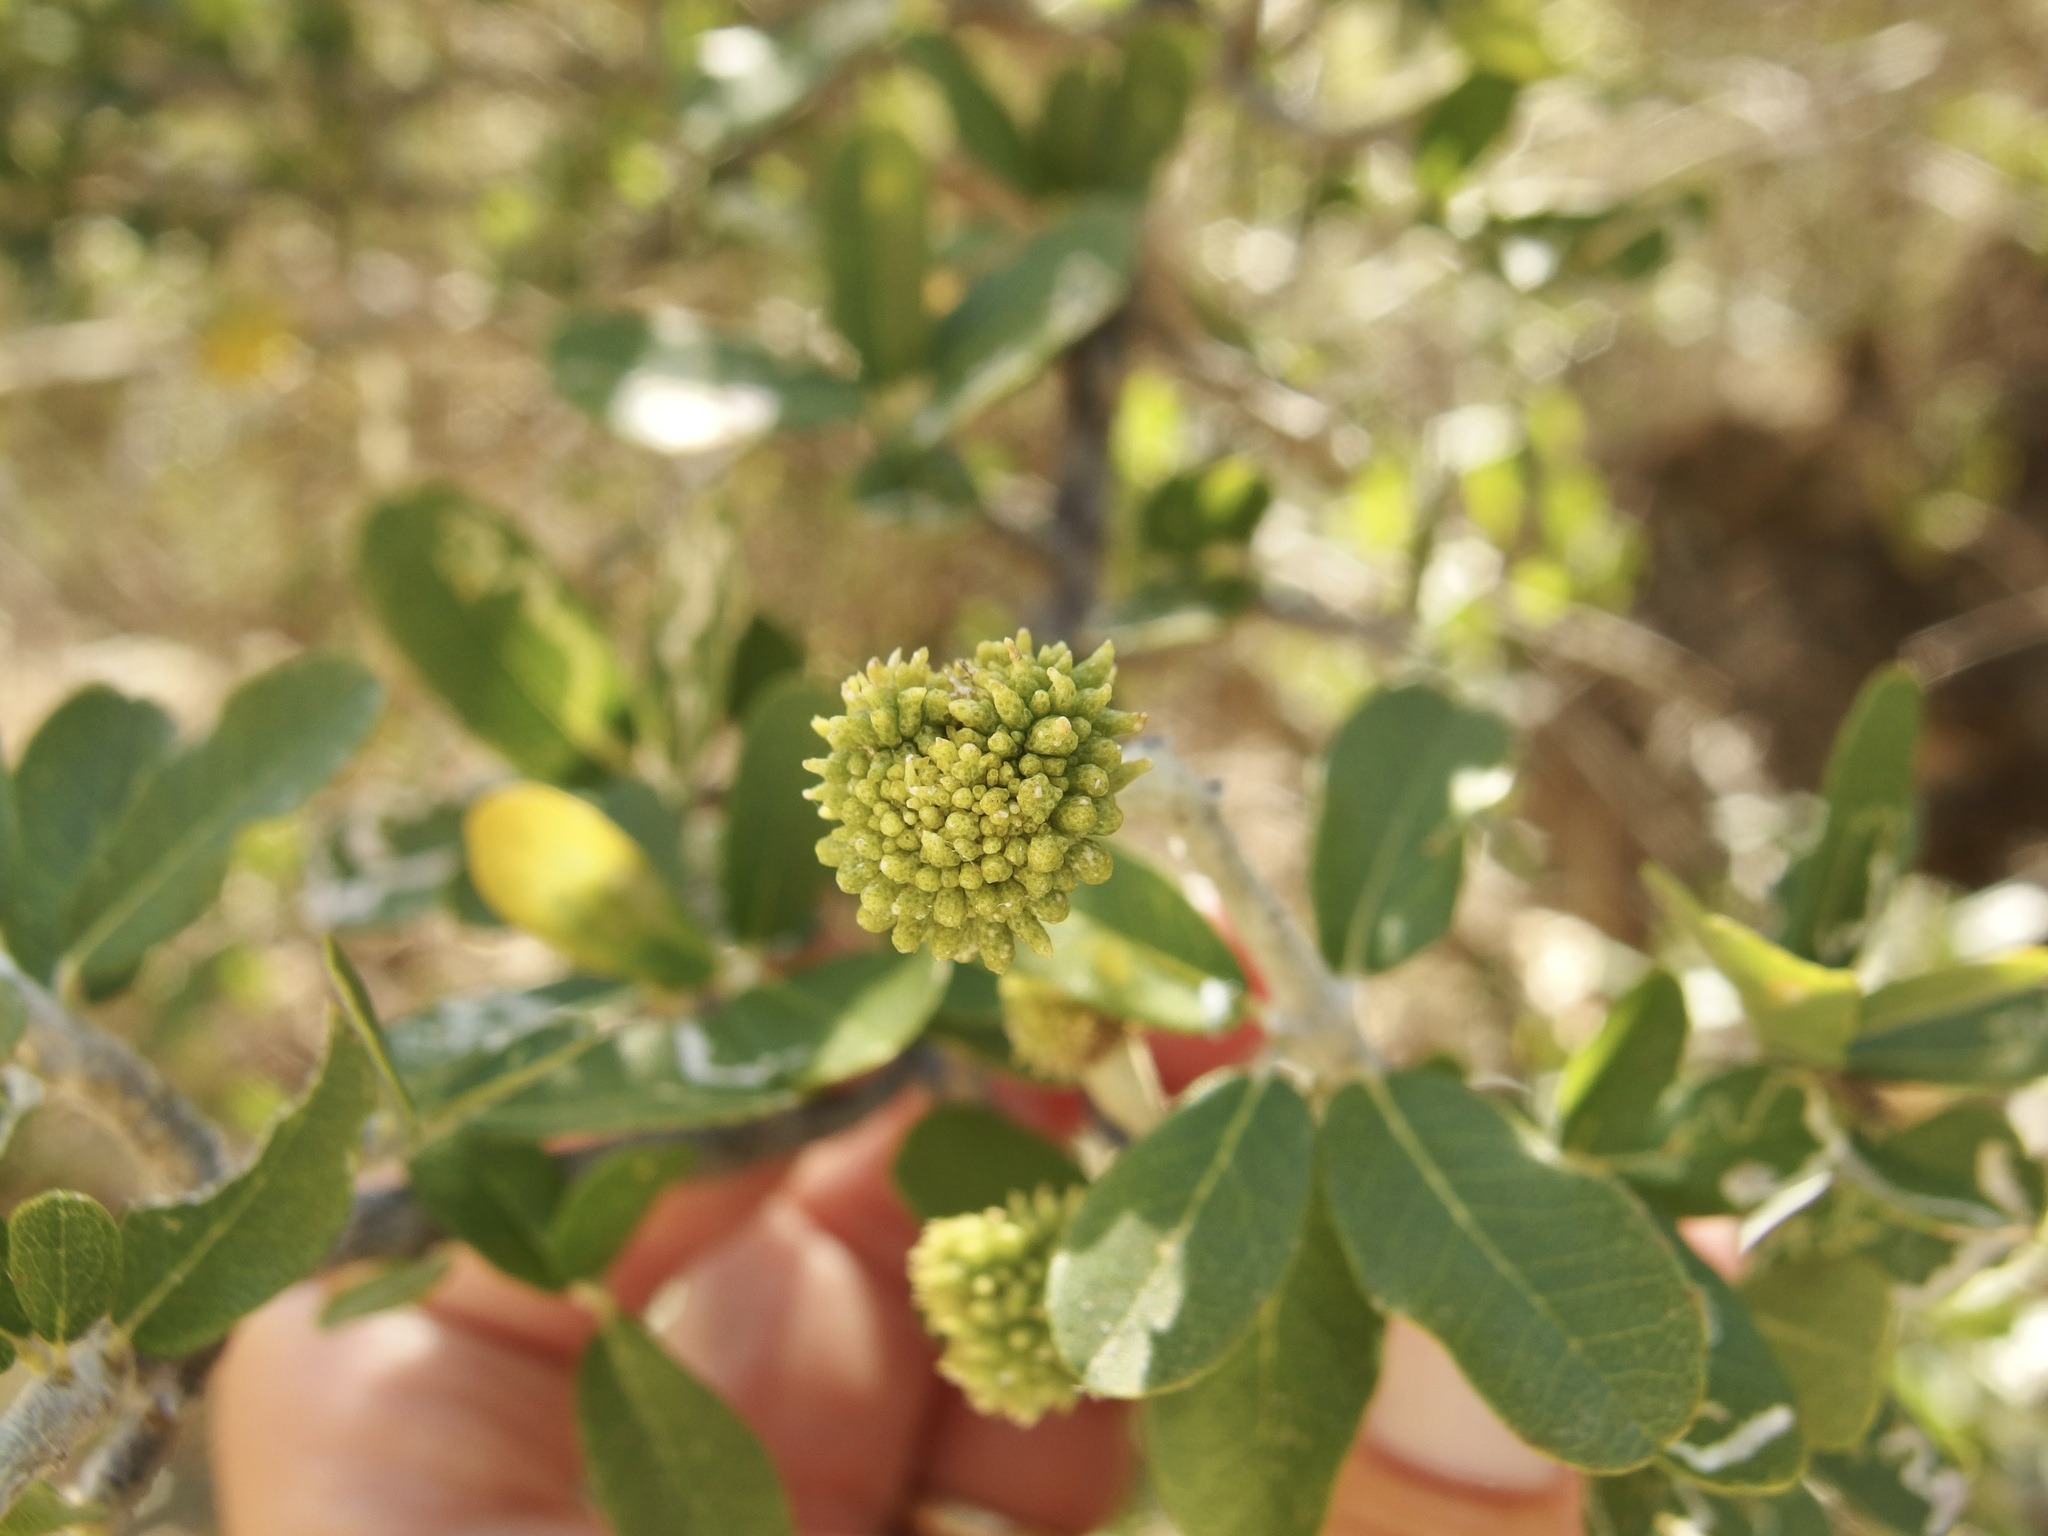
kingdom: Plantae
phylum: Tracheophyta
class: Magnoliopsida
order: Sapindales
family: Rutaceae
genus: Esenbeckia
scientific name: Esenbeckia hartmanii
